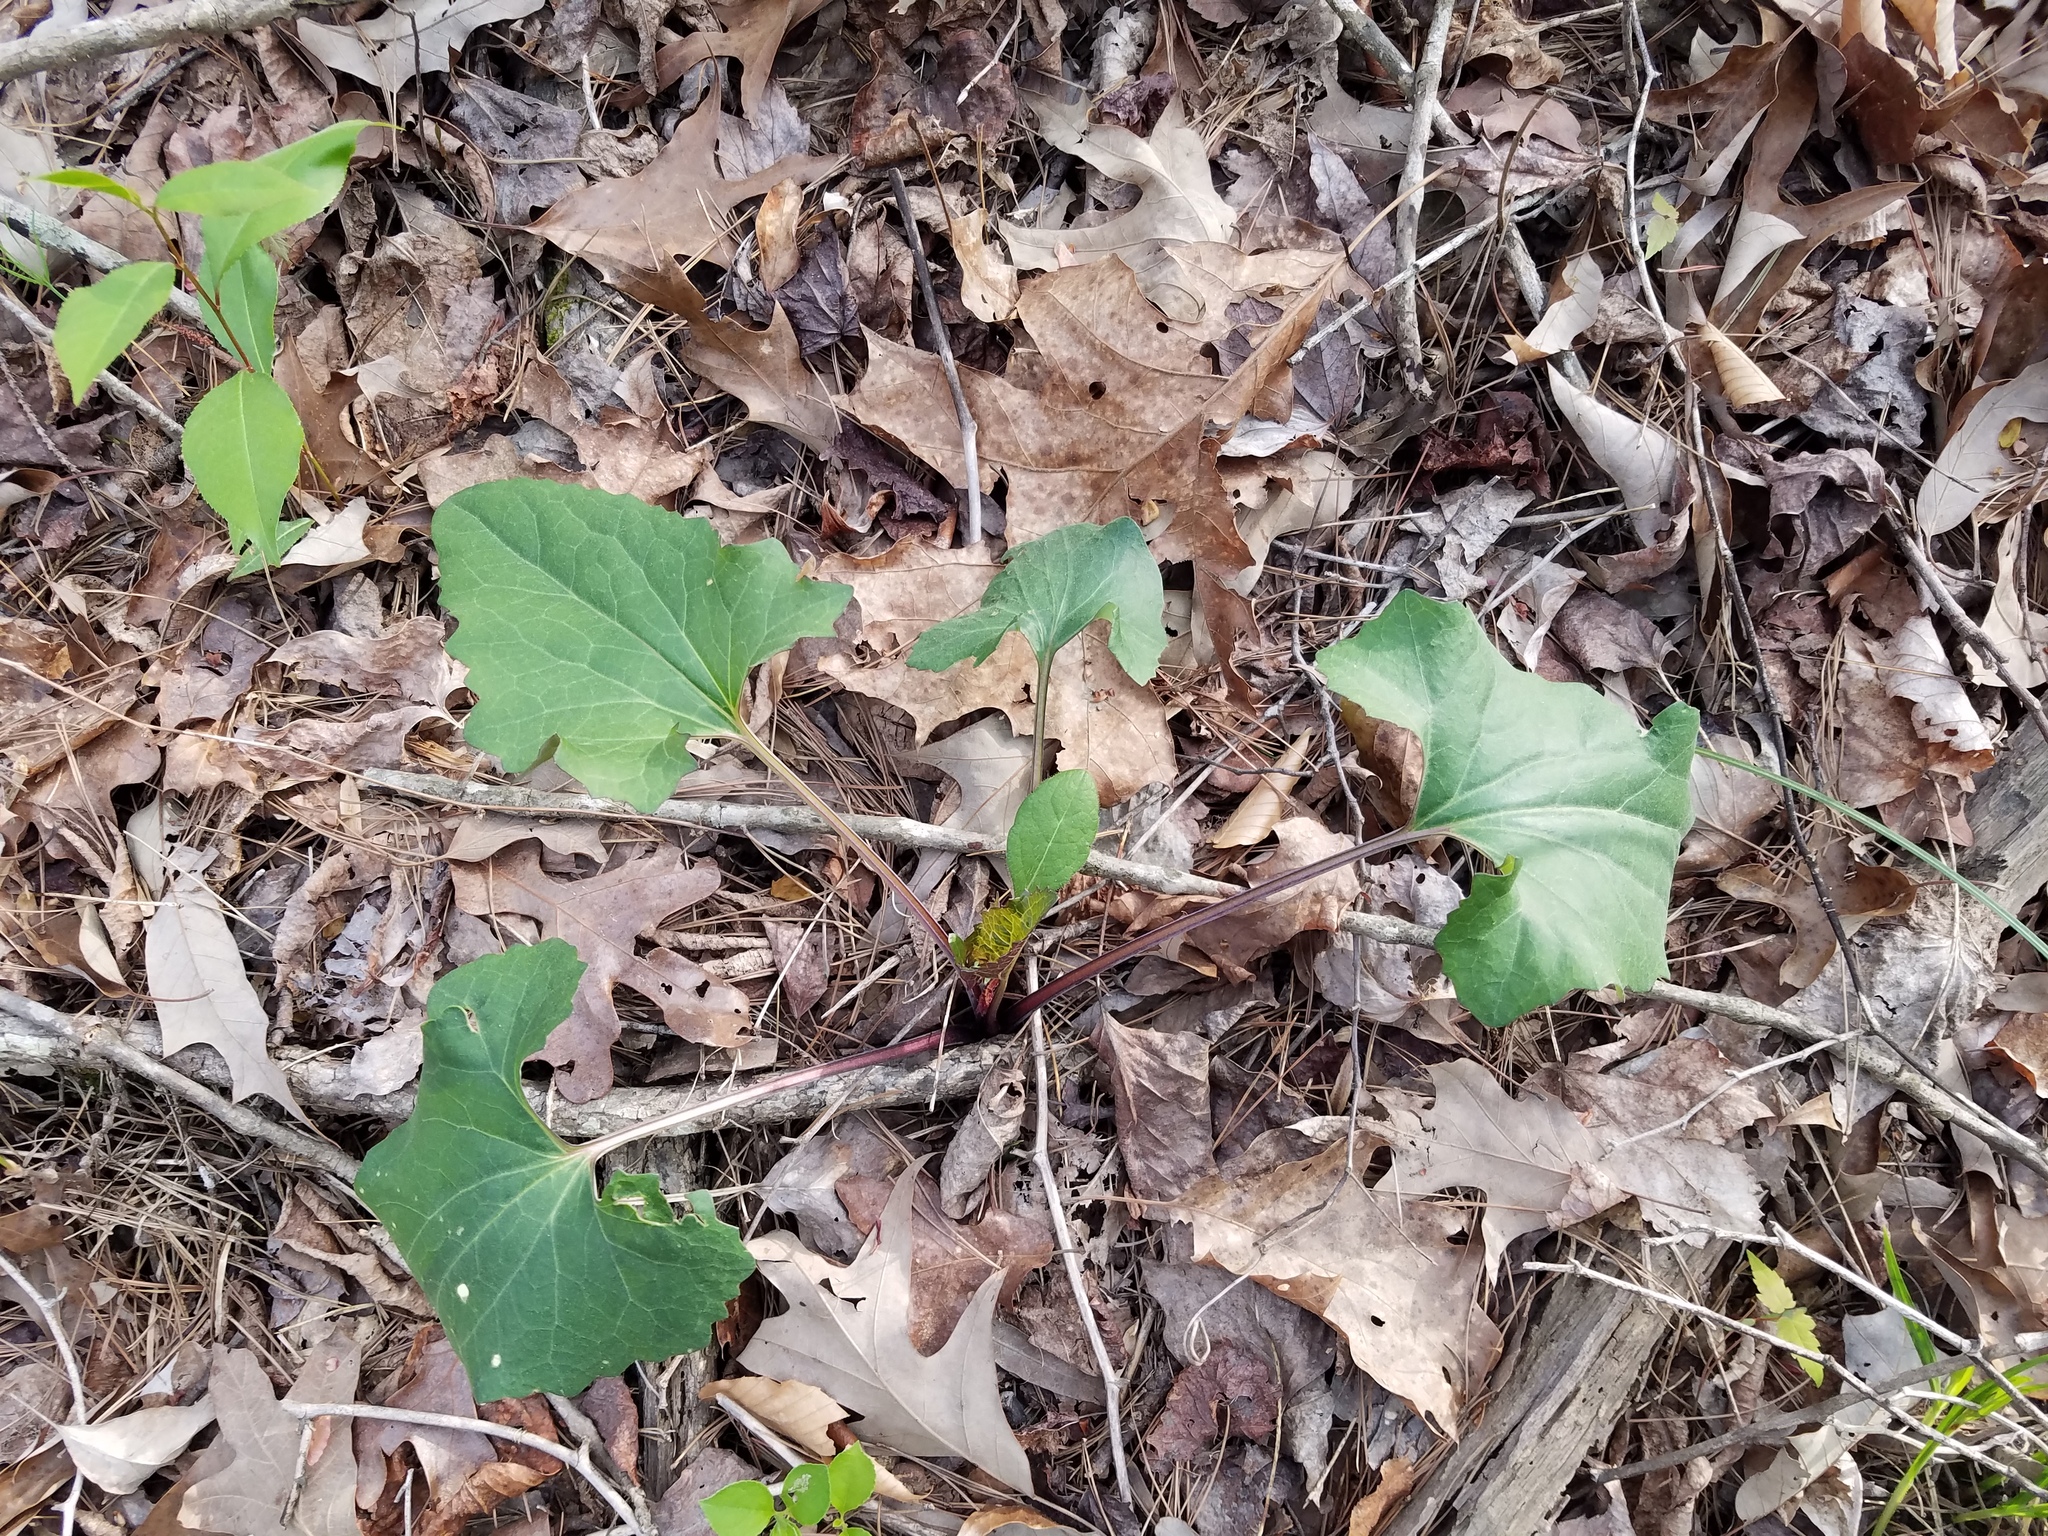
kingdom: Plantae
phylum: Tracheophyta
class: Magnoliopsida
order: Asterales
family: Asteraceae
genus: Arnoglossum
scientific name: Arnoglossum atriplicifolium
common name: Pale indian-plantain
